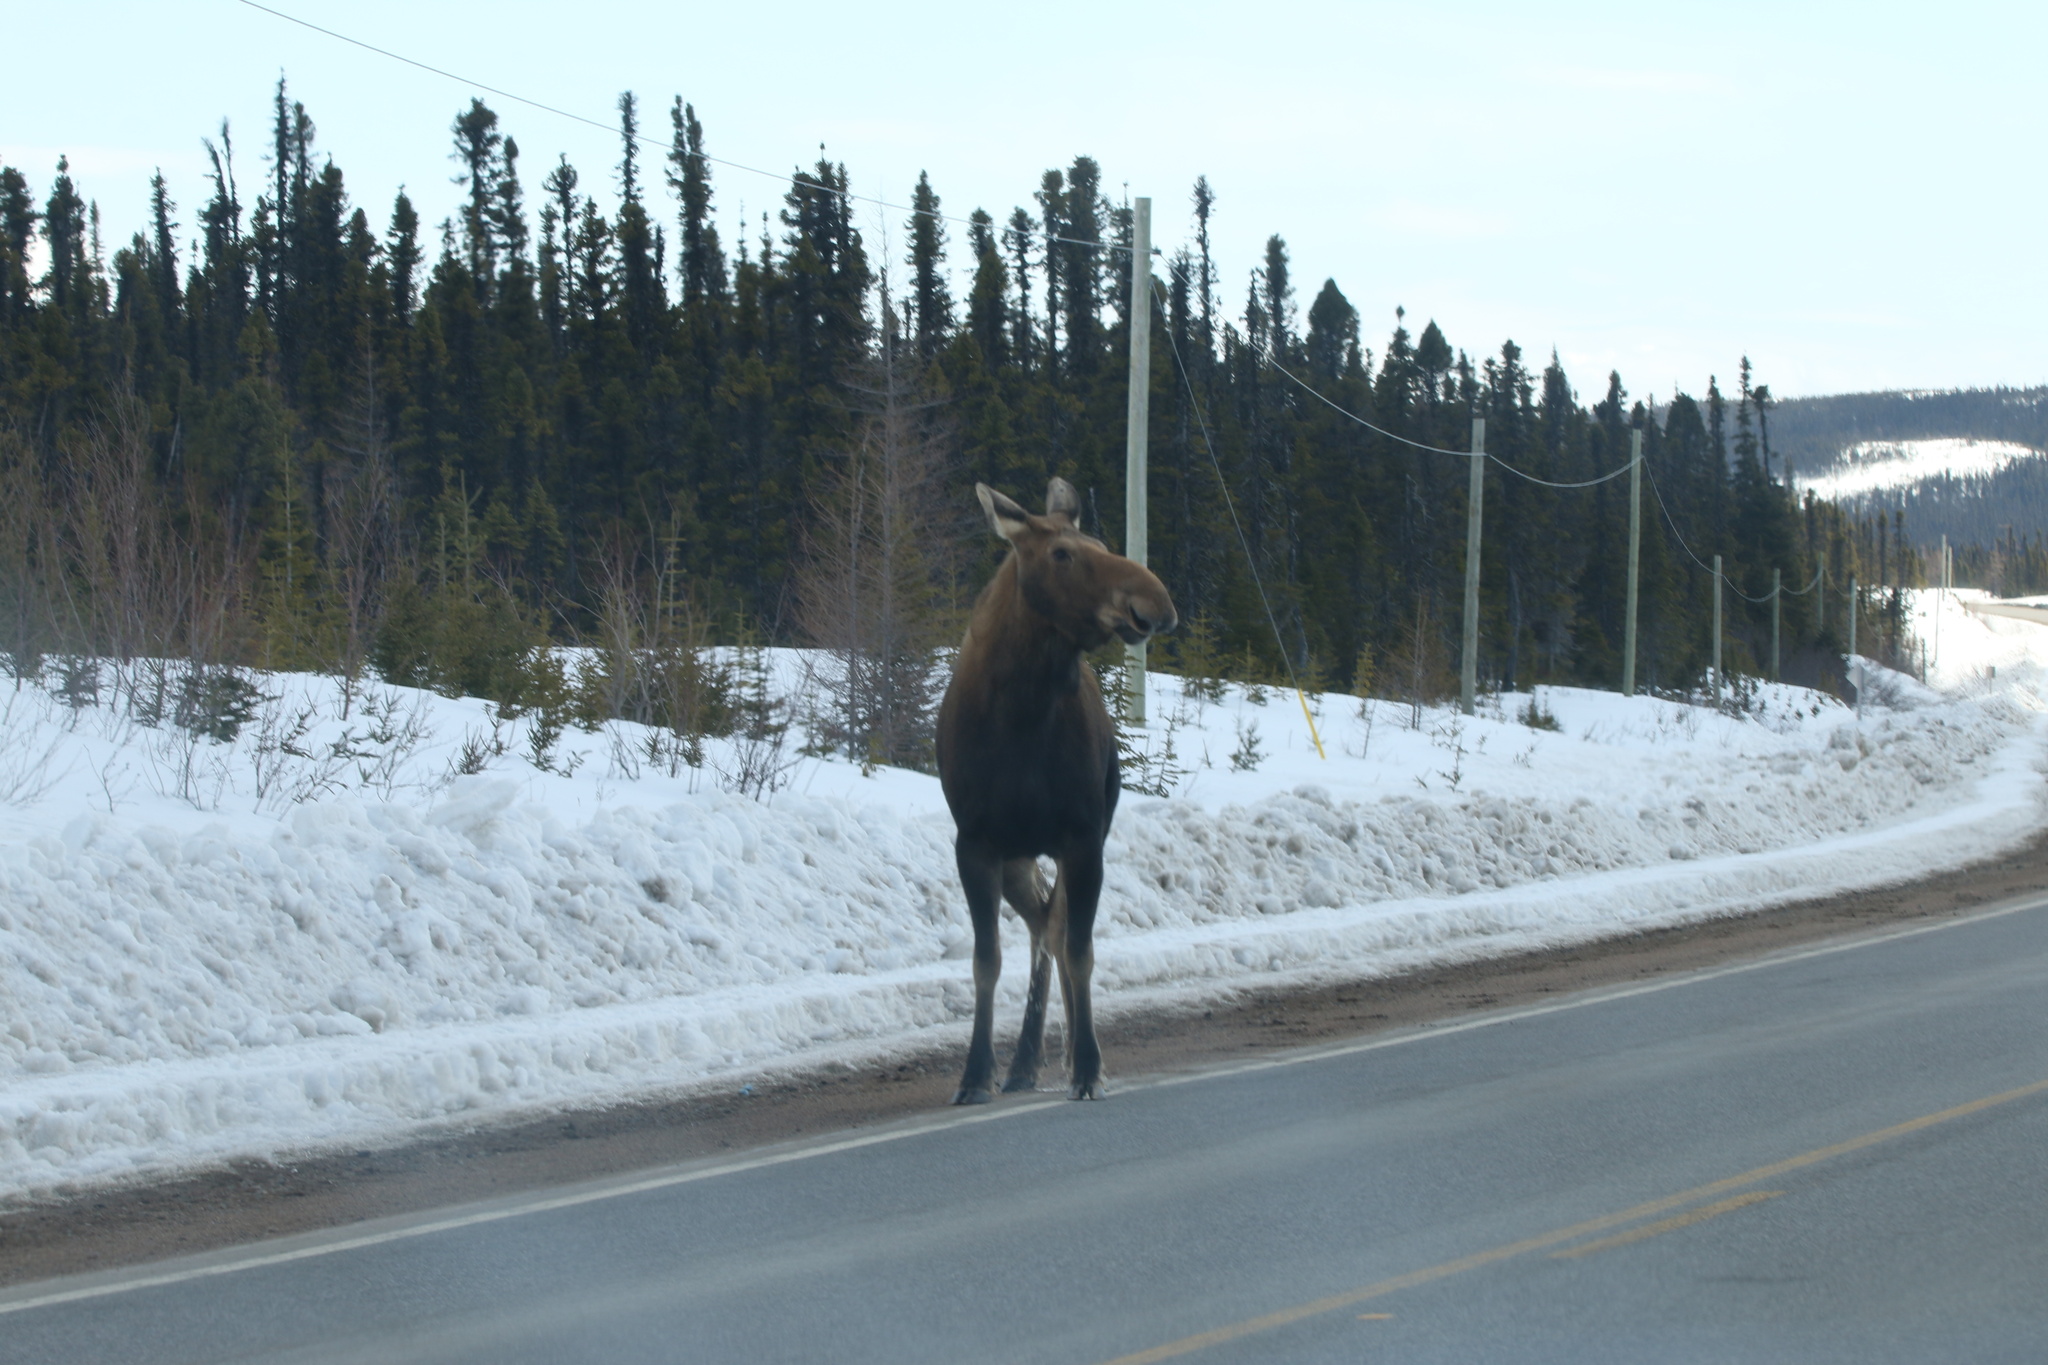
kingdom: Animalia
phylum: Chordata
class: Mammalia
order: Artiodactyla
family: Cervidae
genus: Alces
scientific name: Alces alces
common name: Moose
